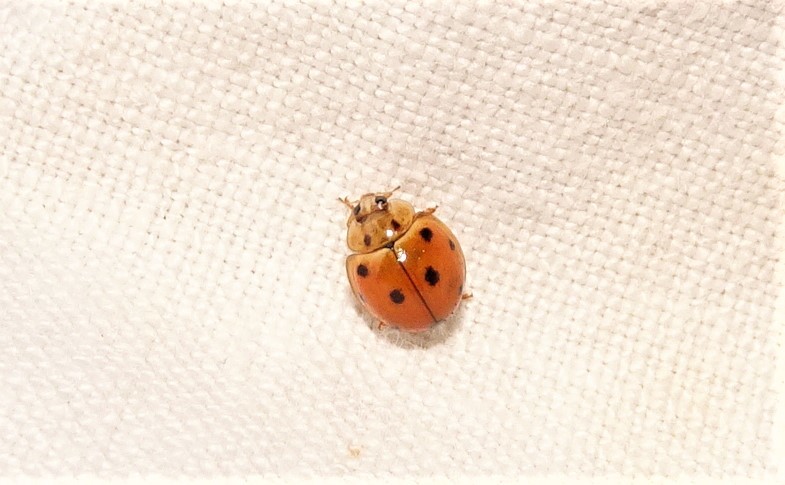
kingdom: Animalia
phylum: Arthropoda
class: Insecta
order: Coleoptera
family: Coccinellidae
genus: Coelophora
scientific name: Coelophora inaequalis
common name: Common australian lady beetle
